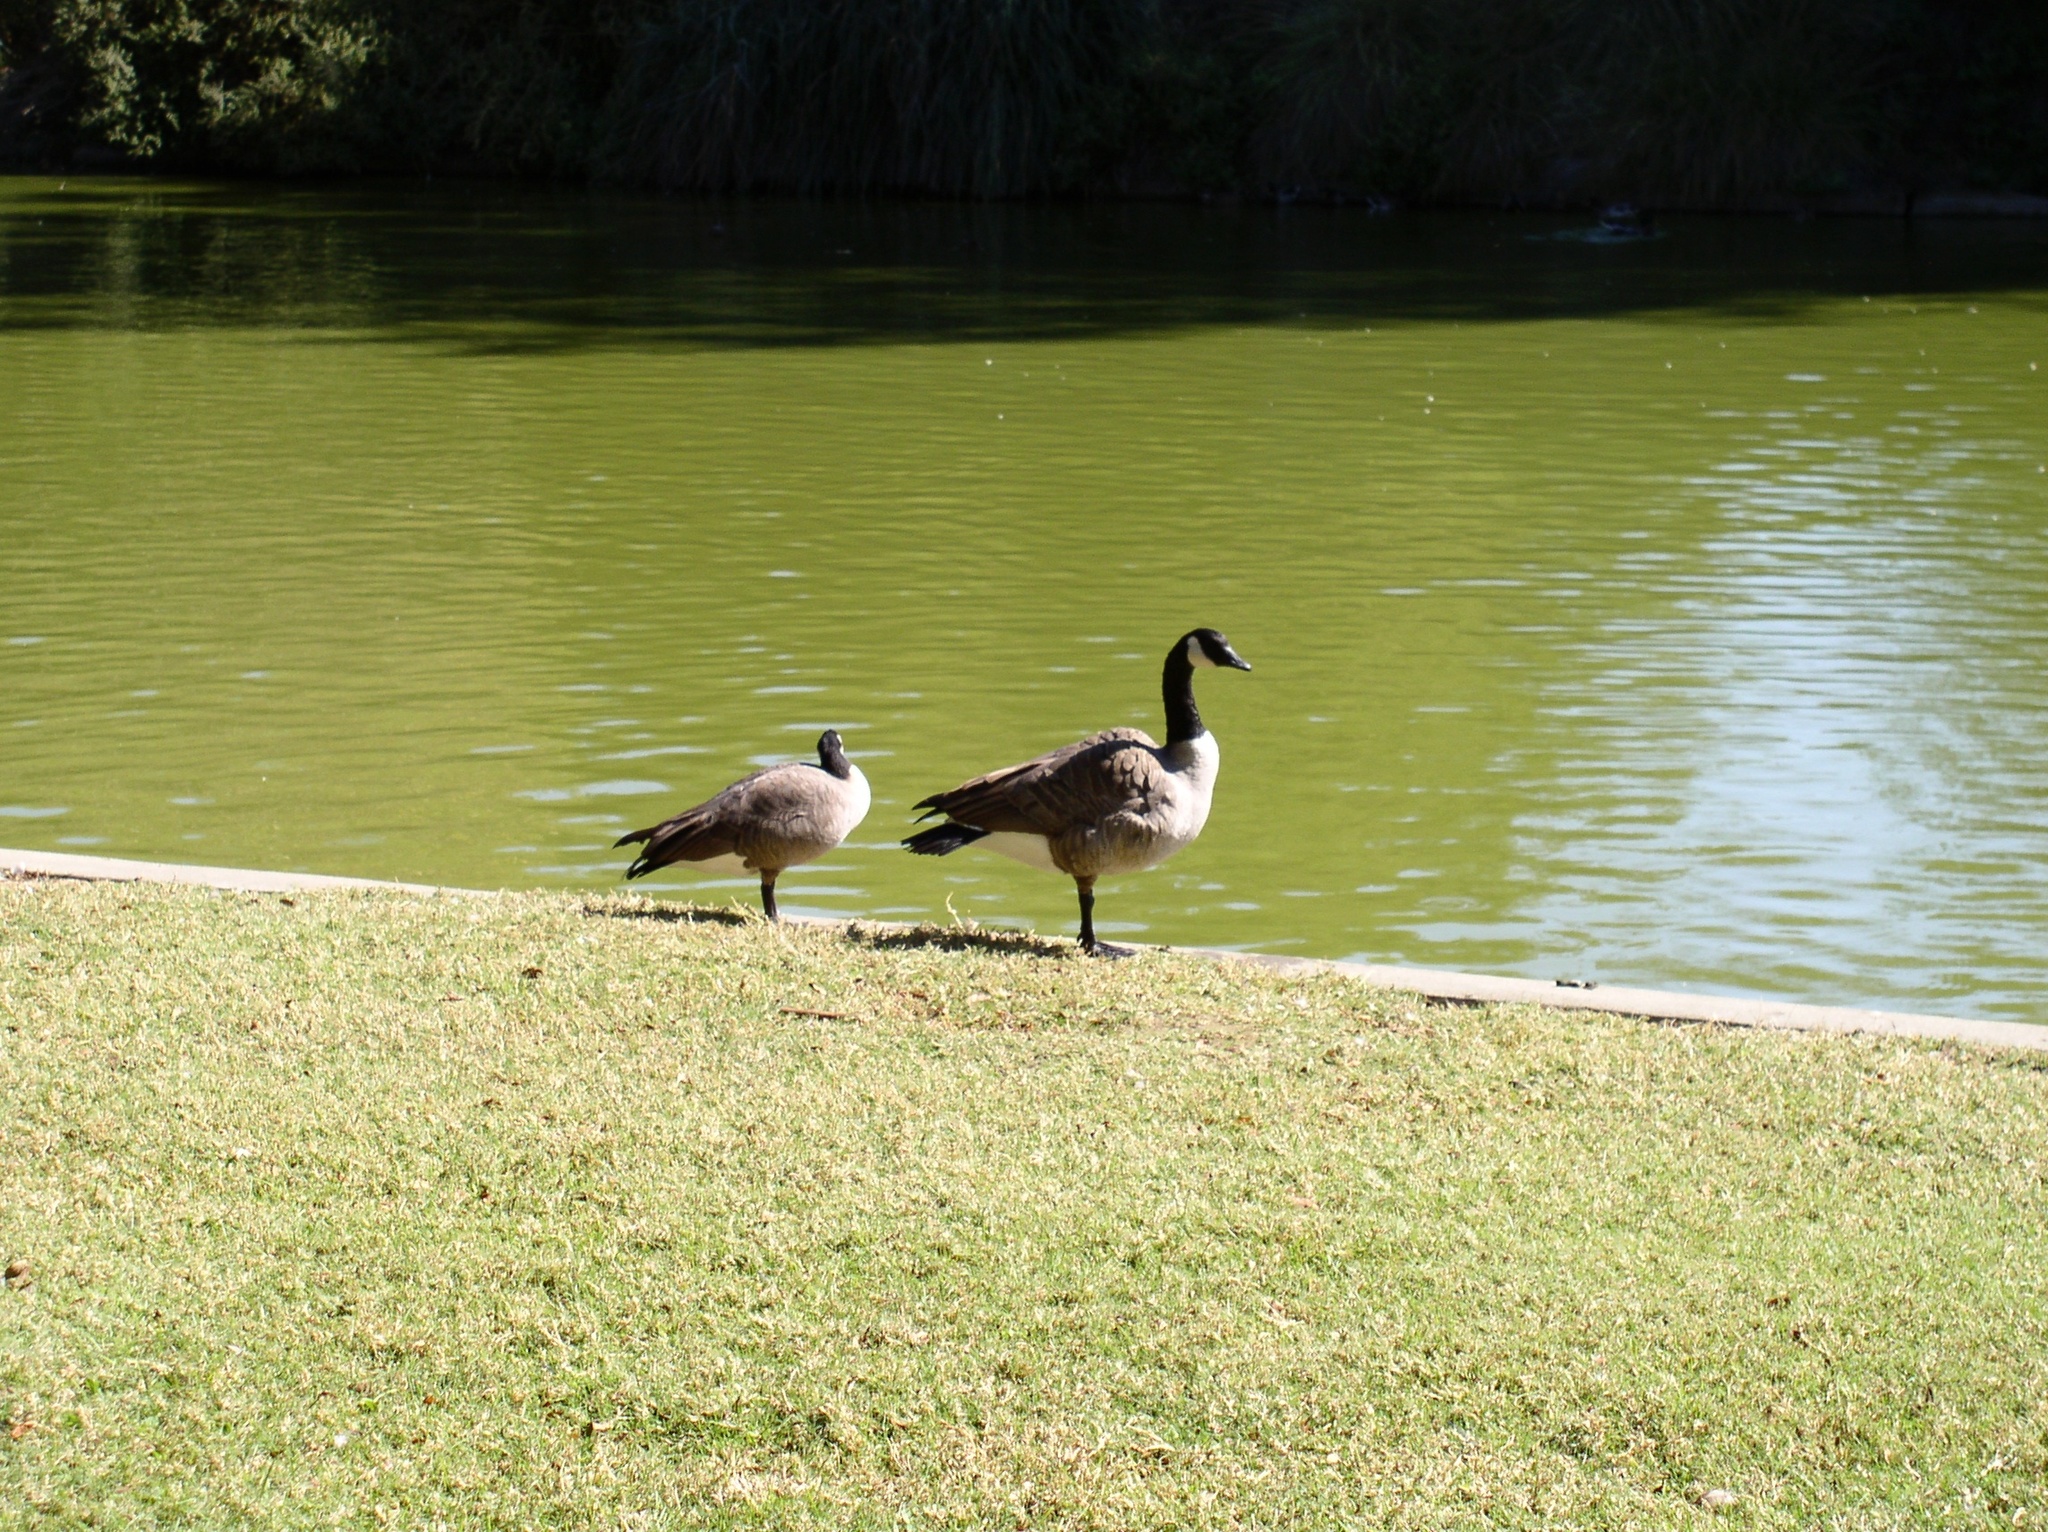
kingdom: Animalia
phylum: Chordata
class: Aves
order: Anseriformes
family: Anatidae
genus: Branta
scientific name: Branta canadensis
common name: Canada goose
